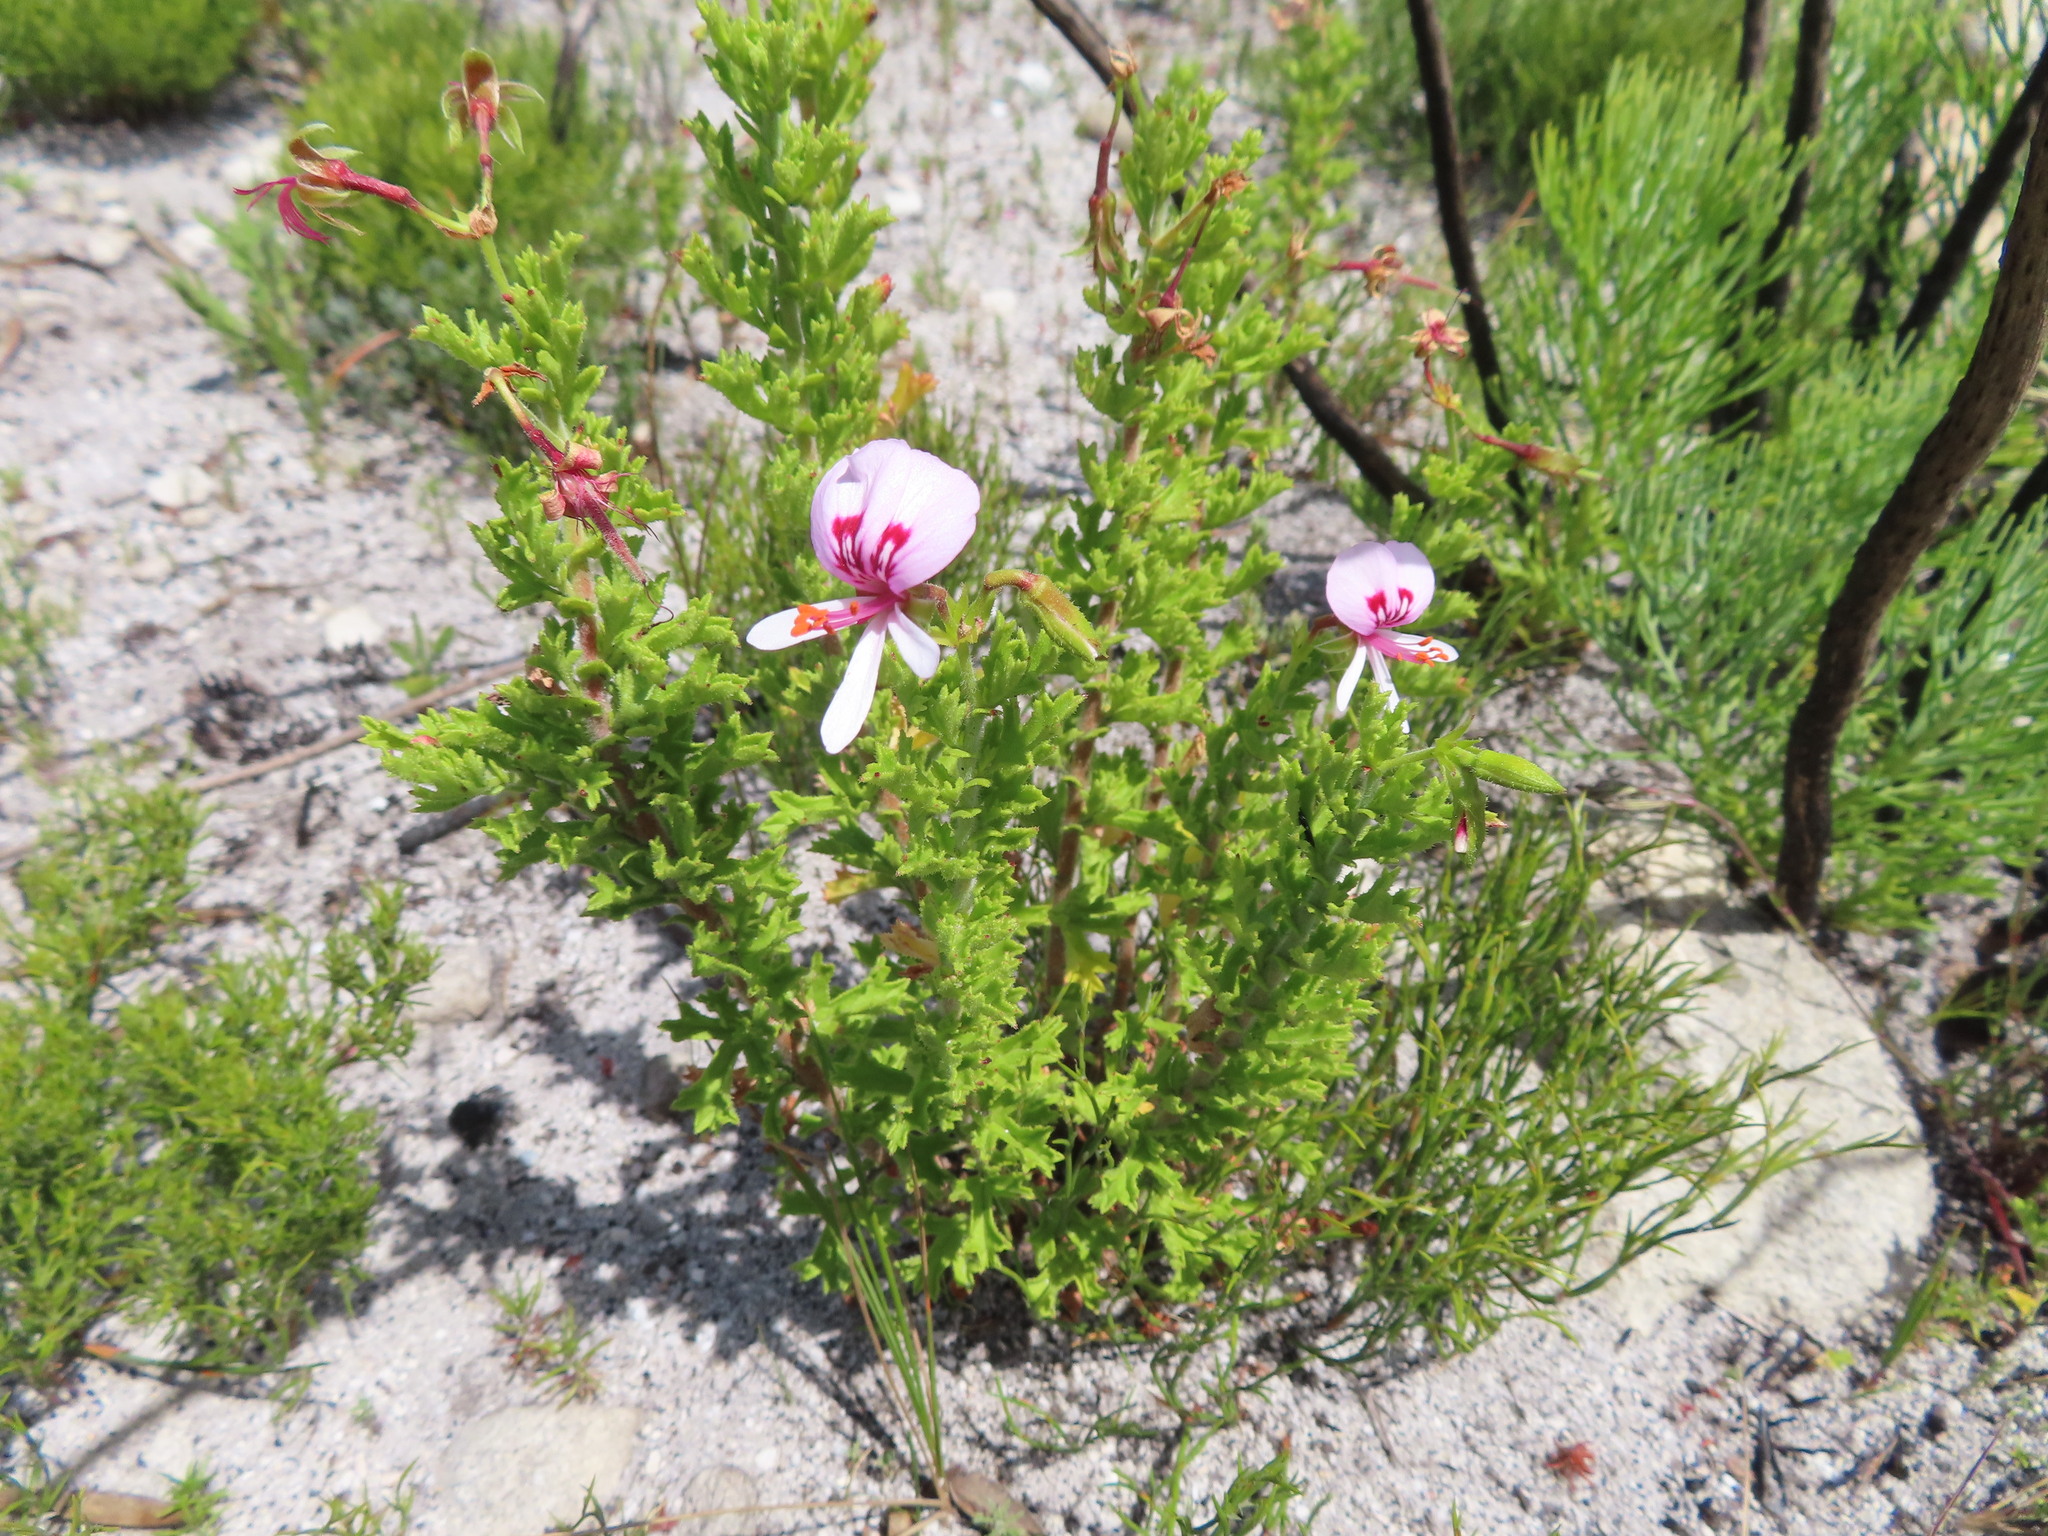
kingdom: Plantae
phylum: Tracheophyta
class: Magnoliopsida
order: Geraniales
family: Geraniaceae
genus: Pelargonium
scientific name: Pelargonium hermaniifolium
